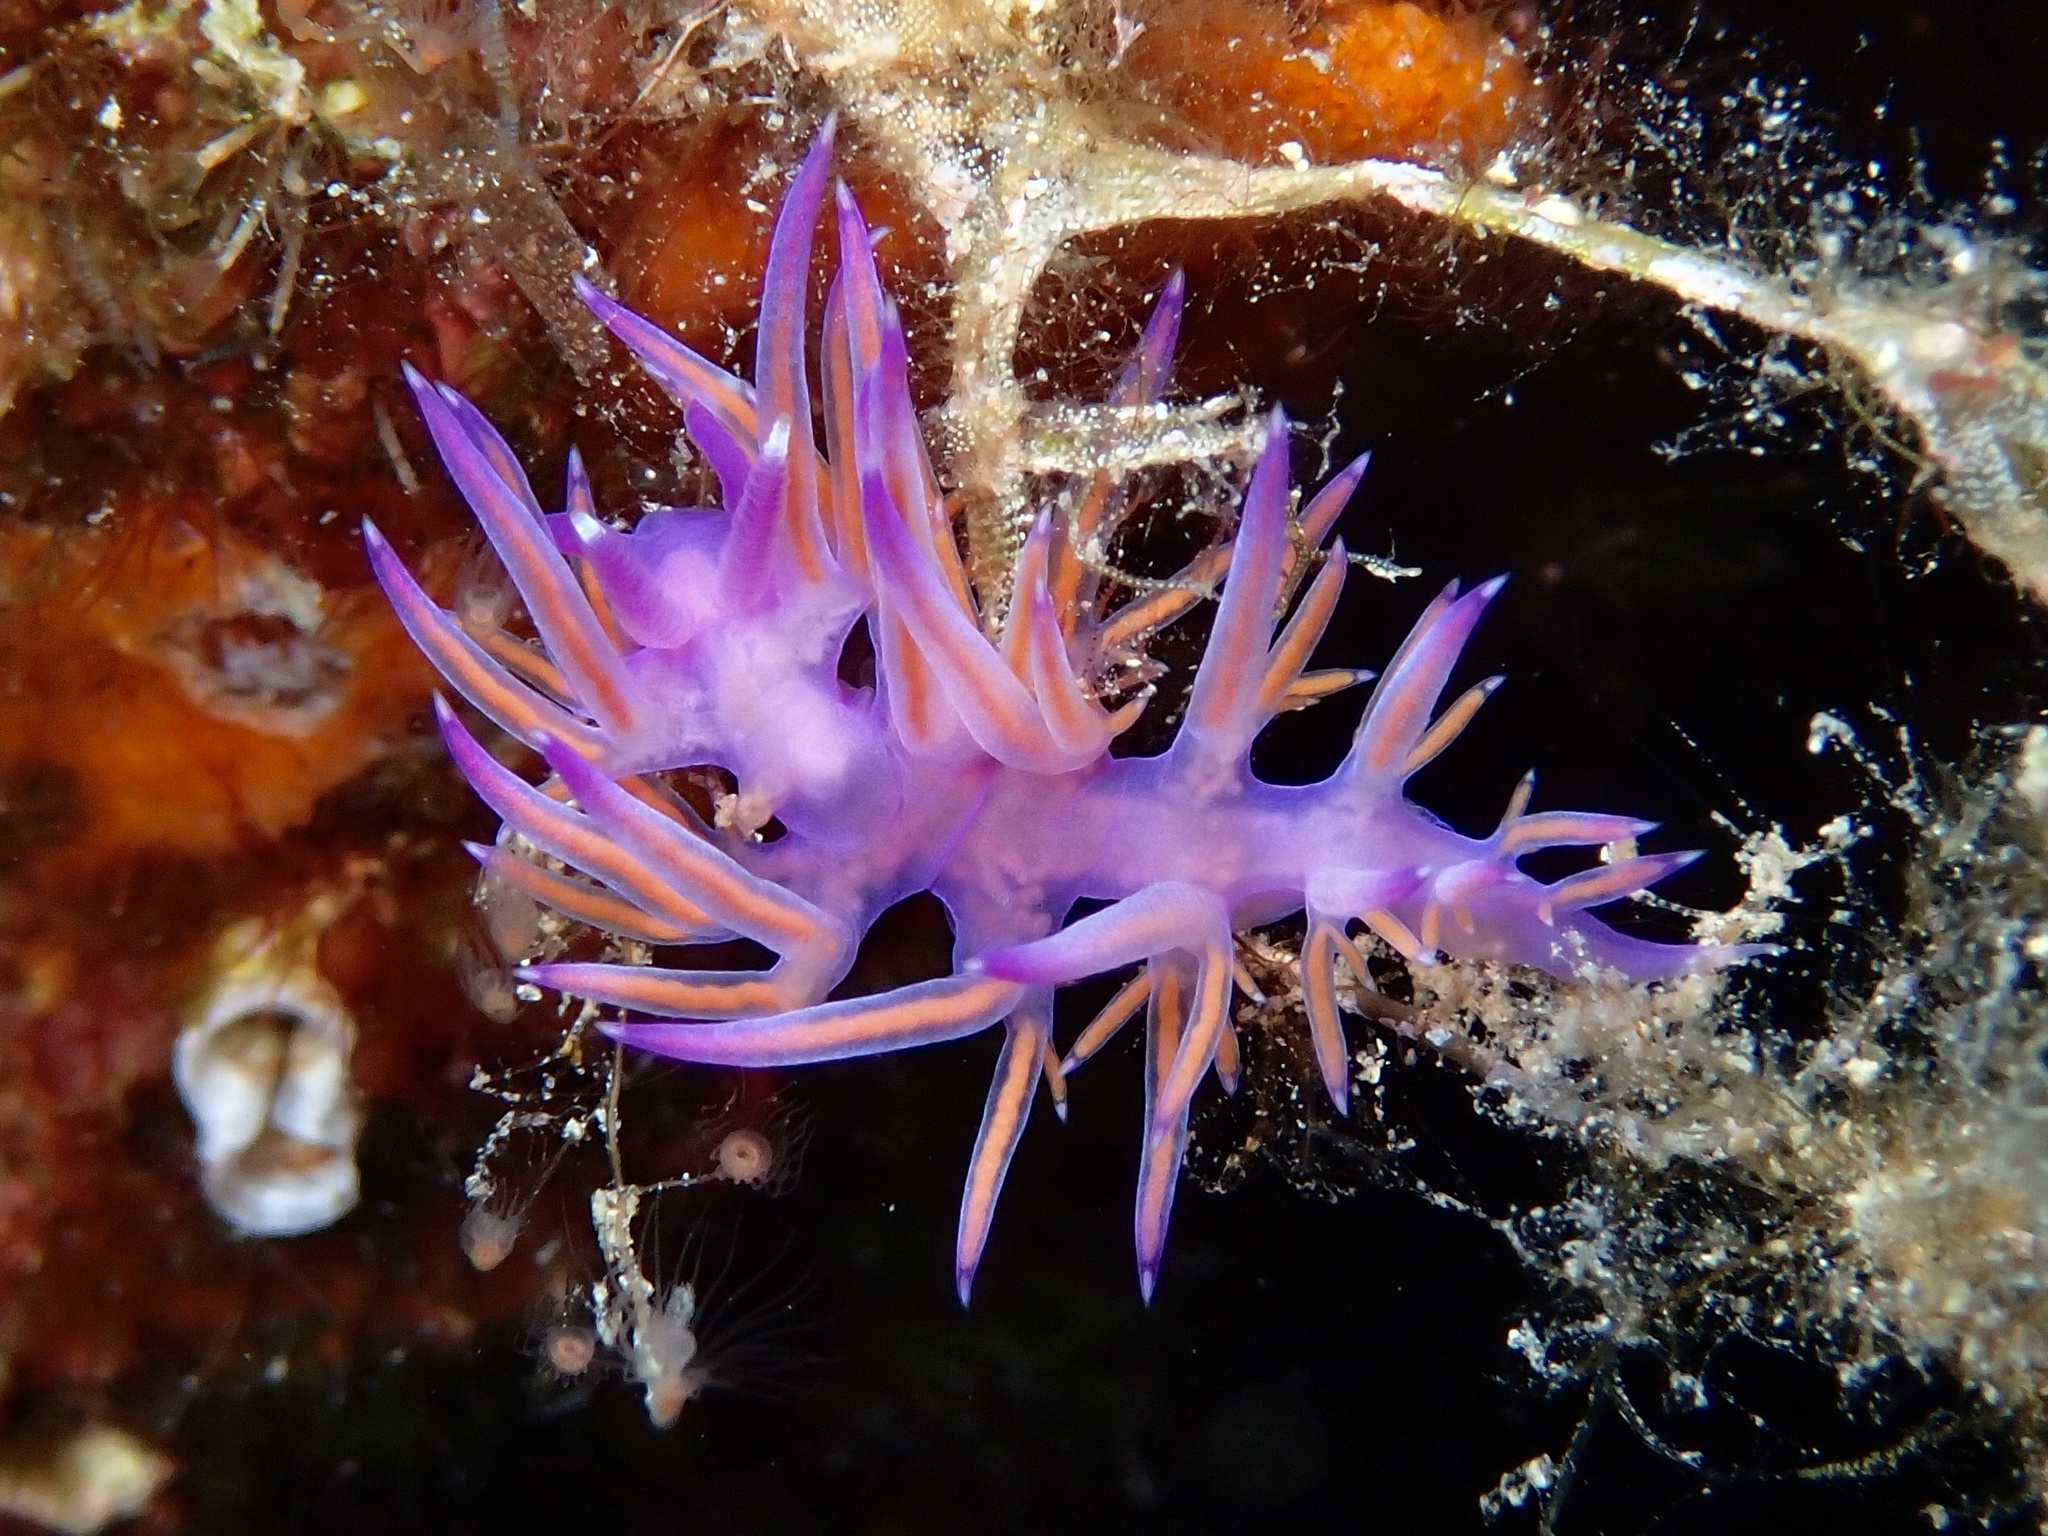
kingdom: Animalia
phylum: Mollusca
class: Gastropoda
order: Nudibranchia
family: Flabellinidae
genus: Flabellina
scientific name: Flabellina affinis
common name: Mediterranean violet aeolid
